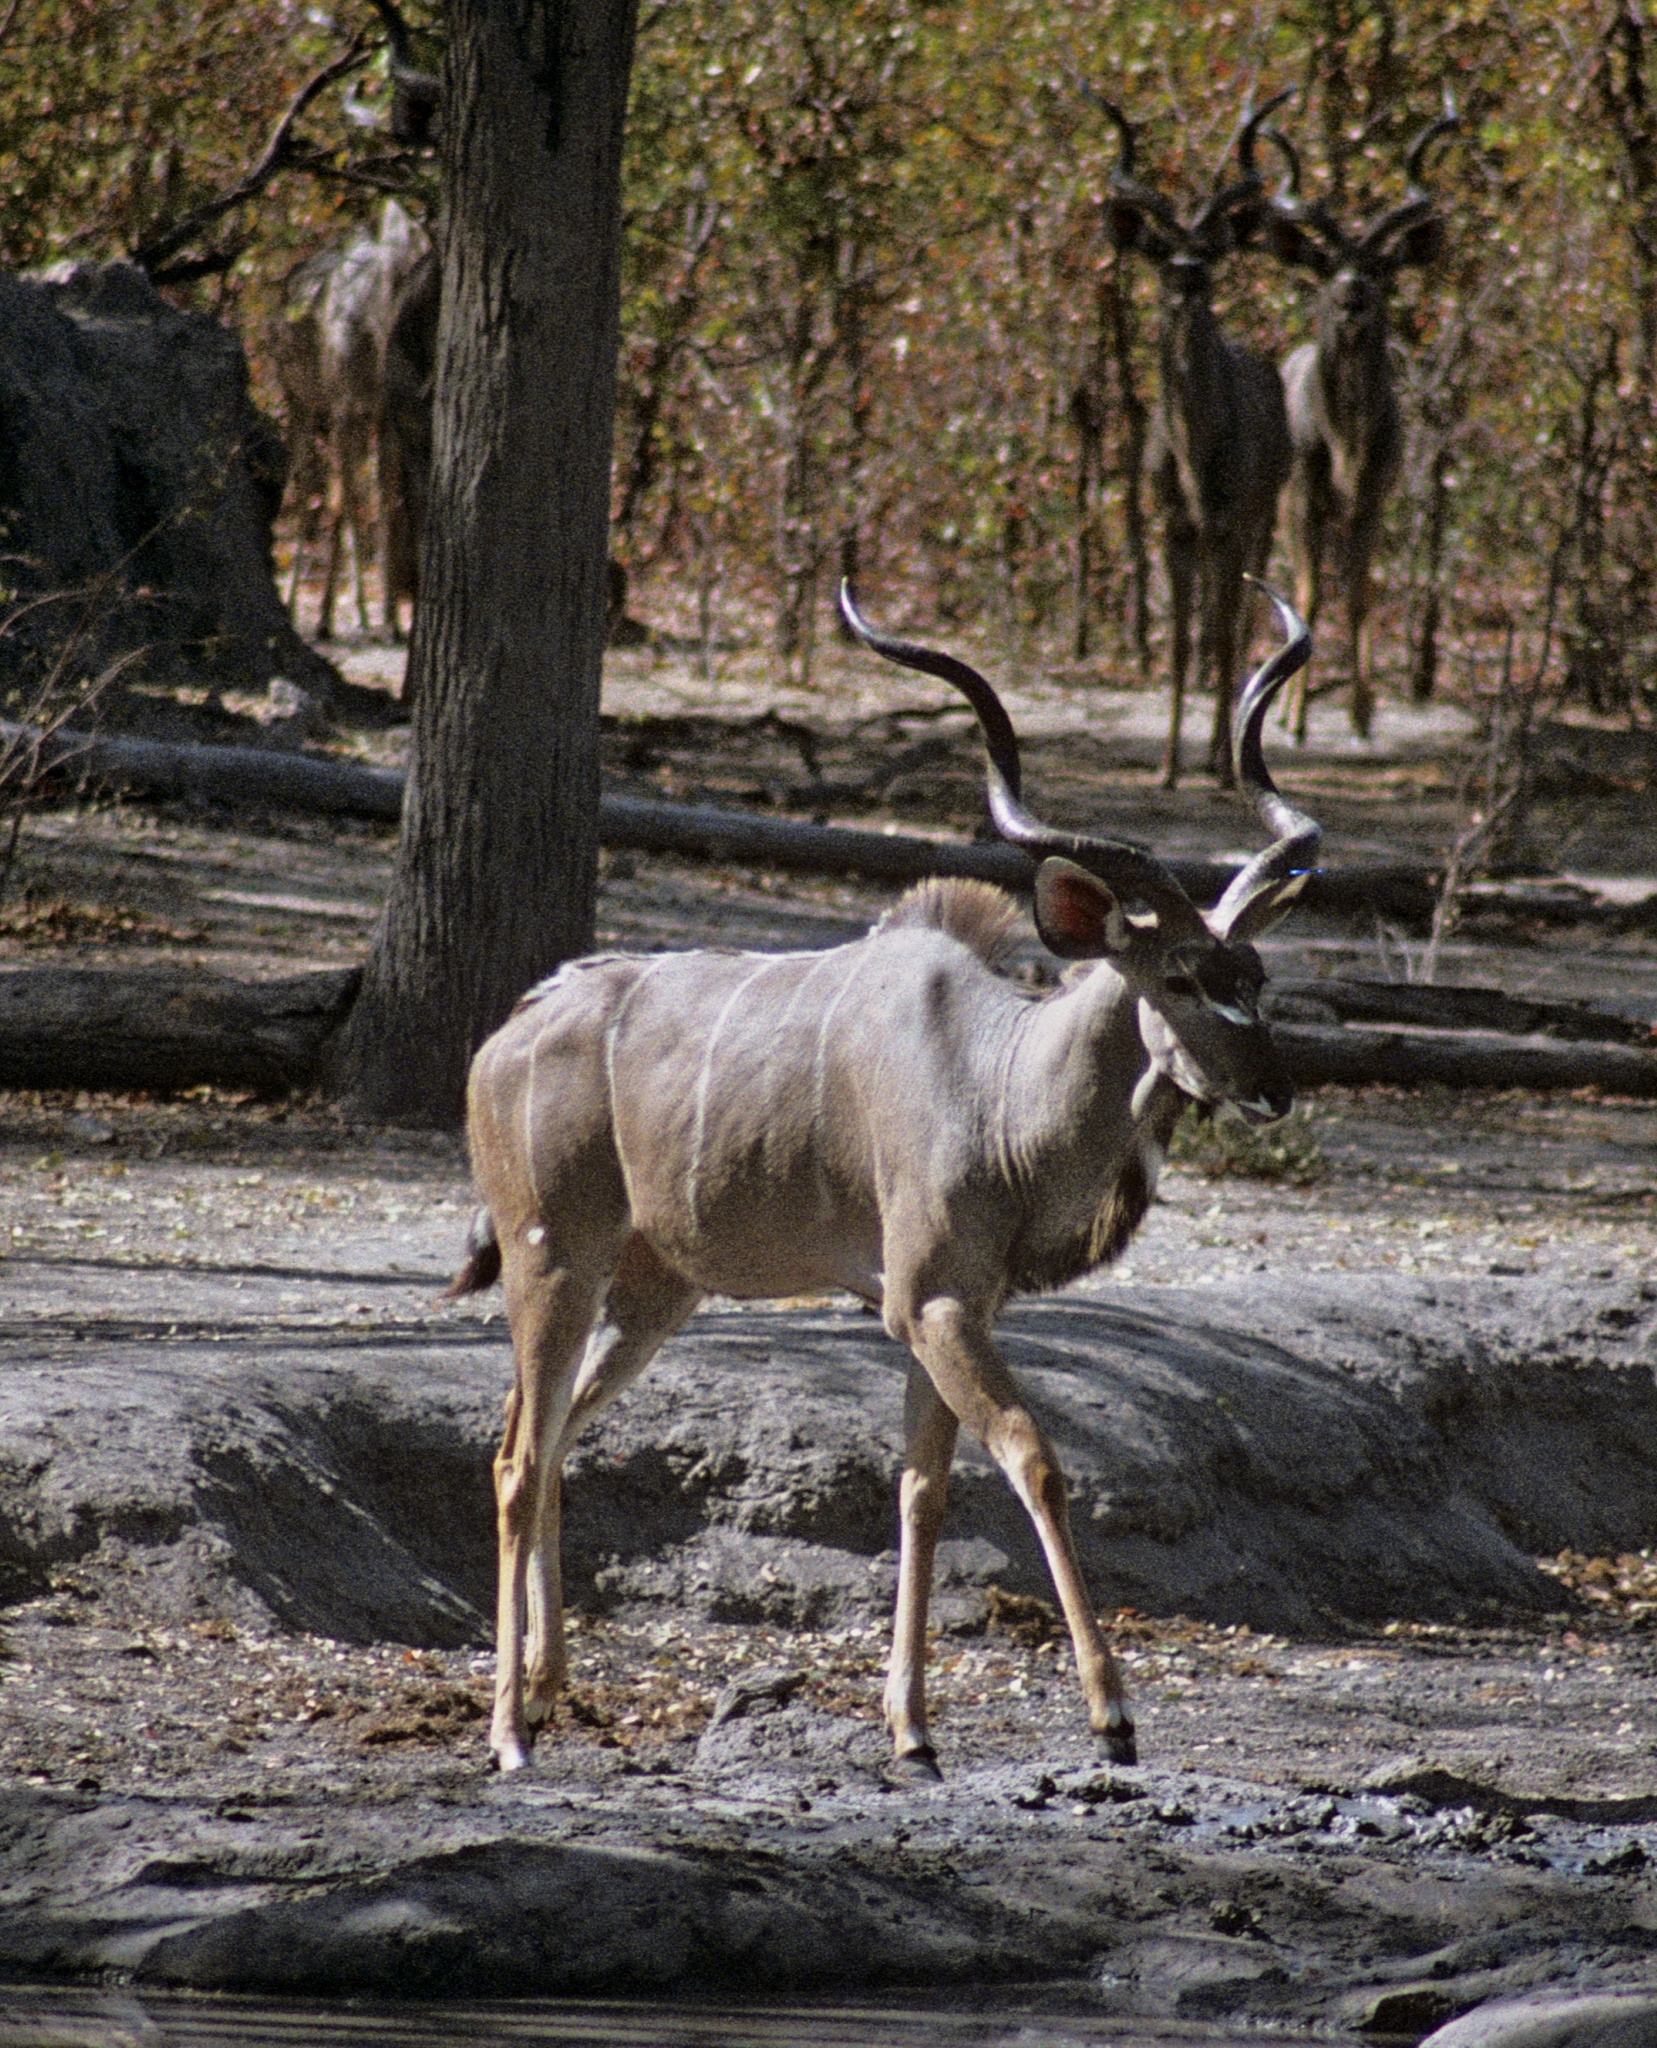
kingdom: Animalia
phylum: Chordata
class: Mammalia
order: Artiodactyla
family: Bovidae
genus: Tragelaphus
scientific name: Tragelaphus strepsiceros
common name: Greater kudu
